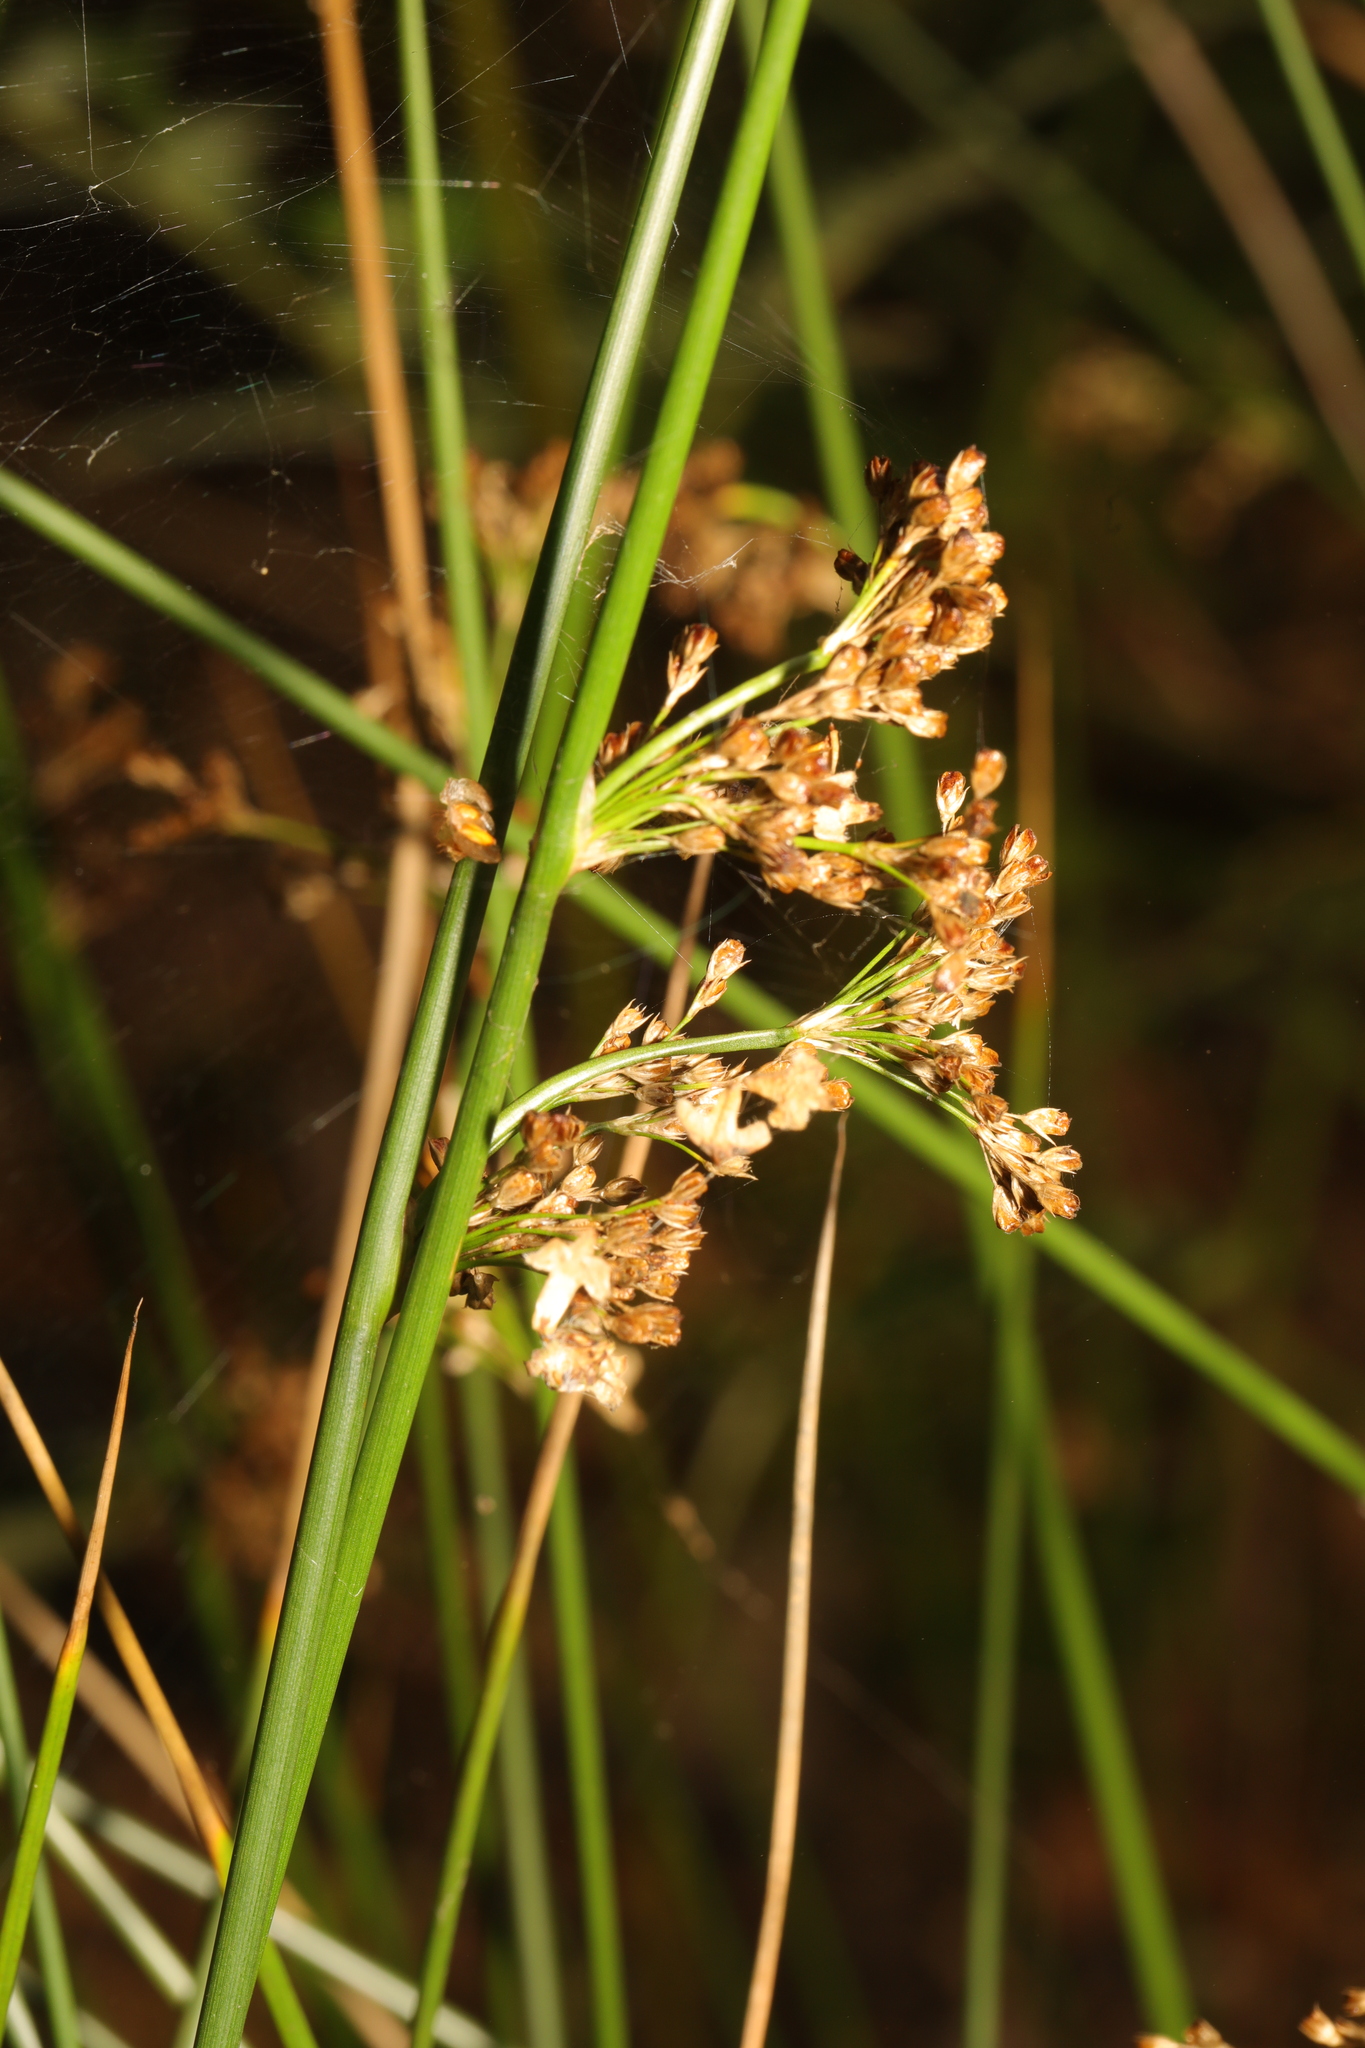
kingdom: Plantae
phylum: Tracheophyta
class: Liliopsida
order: Poales
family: Juncaceae
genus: Juncus
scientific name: Juncus effusus
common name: Soft rush
